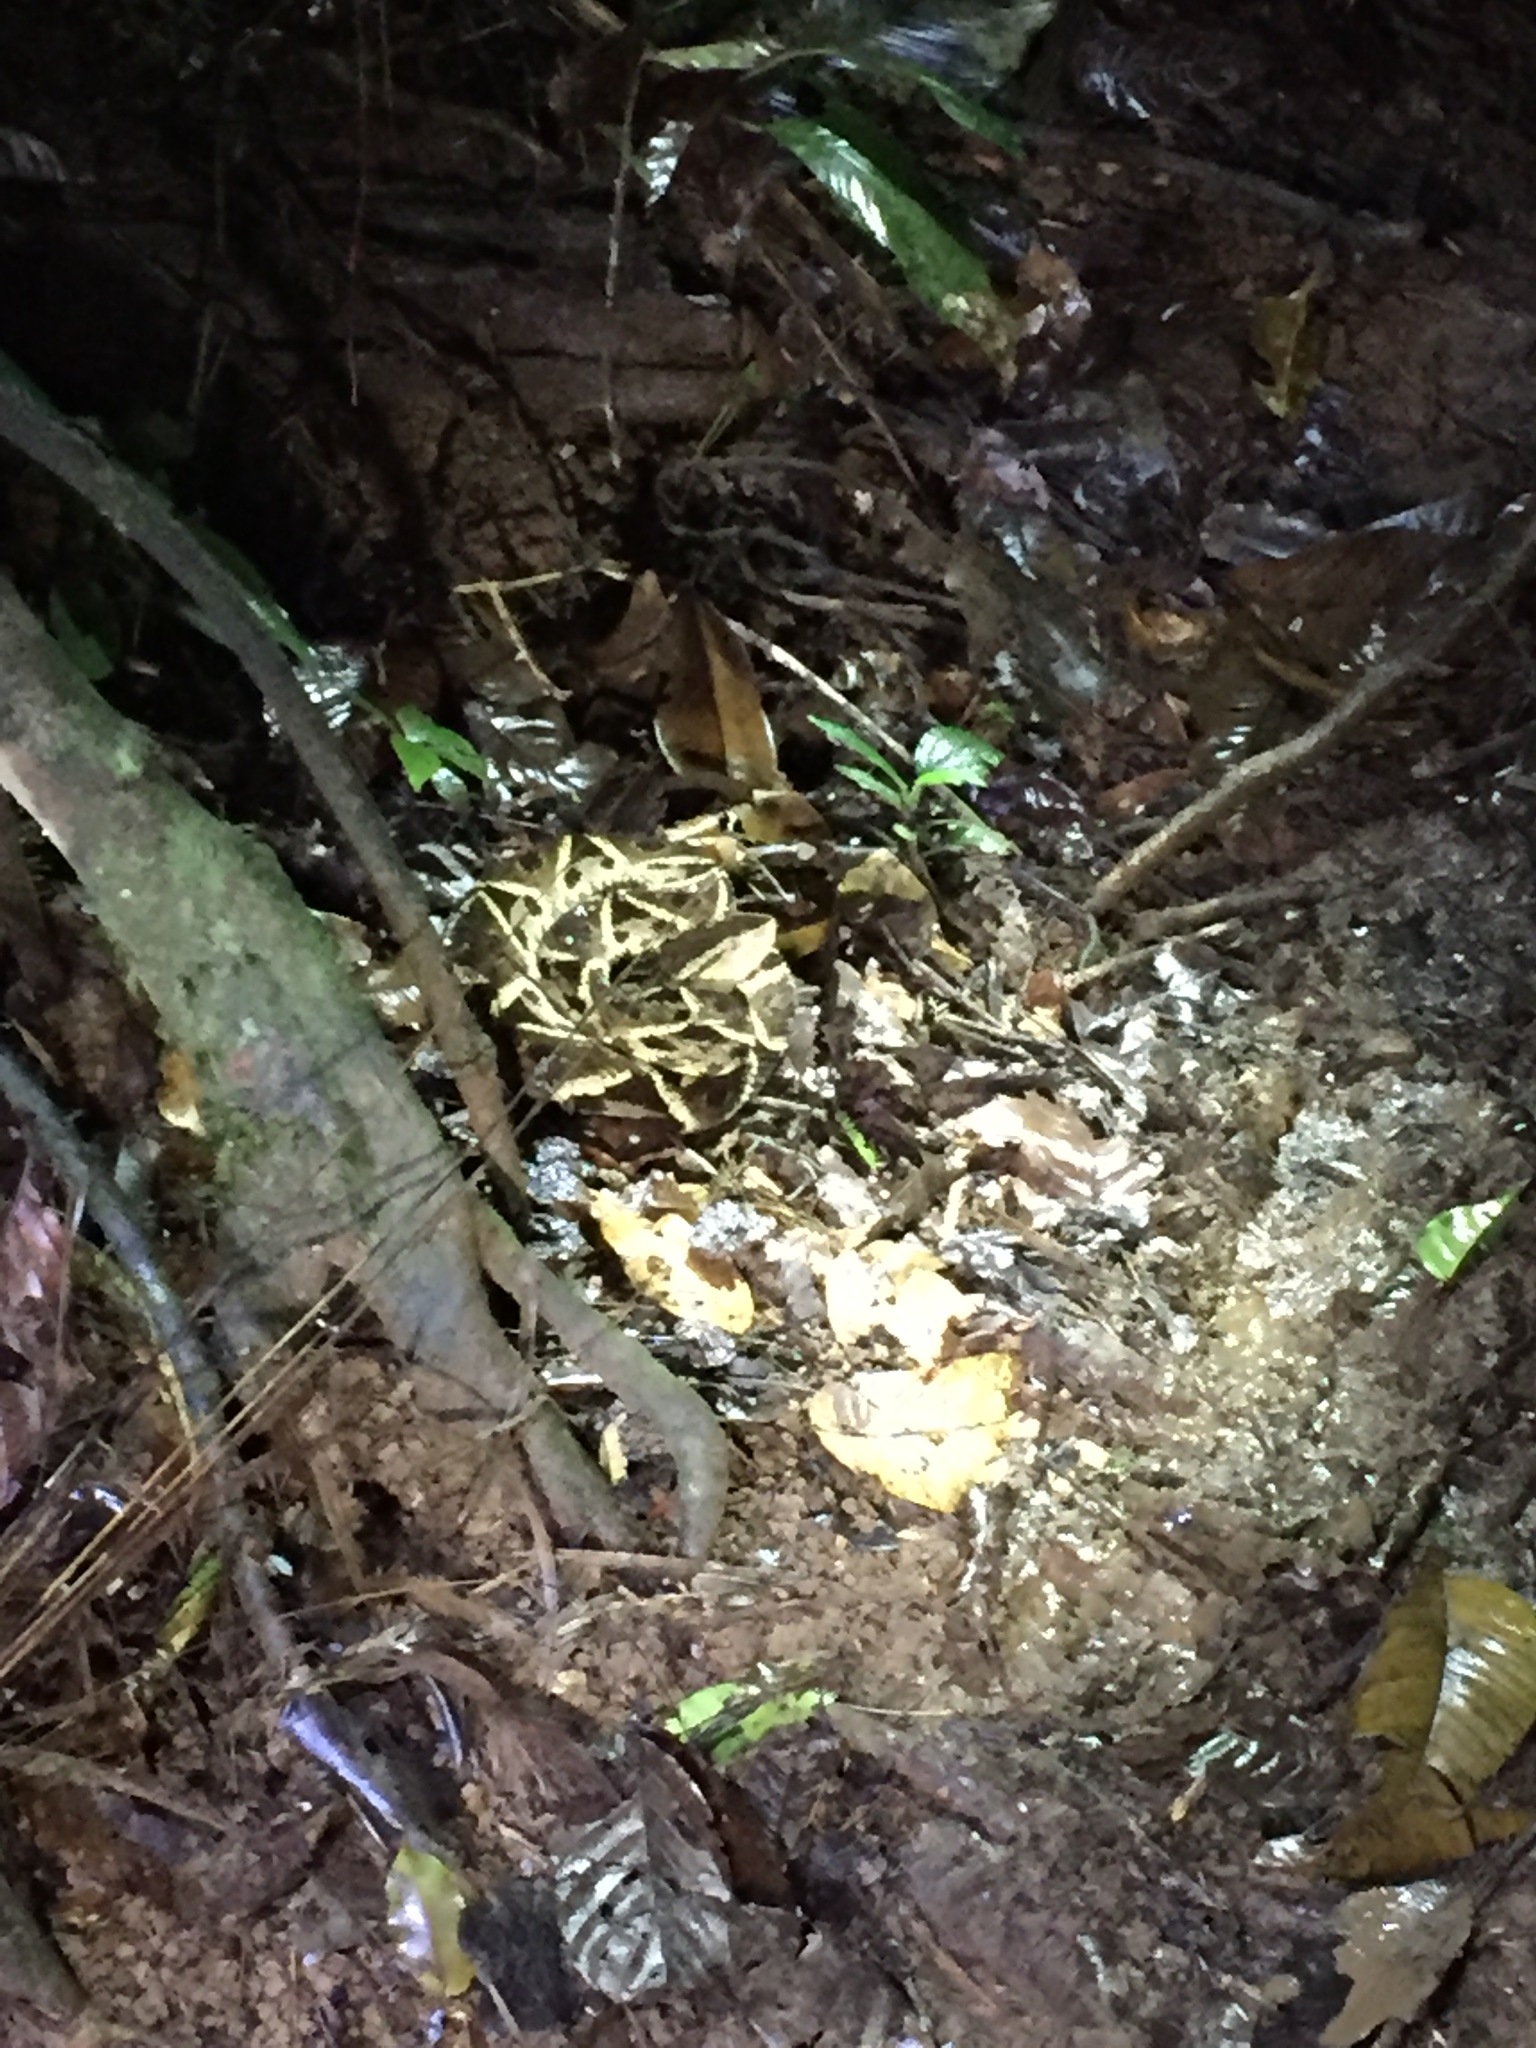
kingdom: Animalia
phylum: Chordata
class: Squamata
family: Viperidae
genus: Bothrops
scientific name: Bothrops asper
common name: Terciopelo
